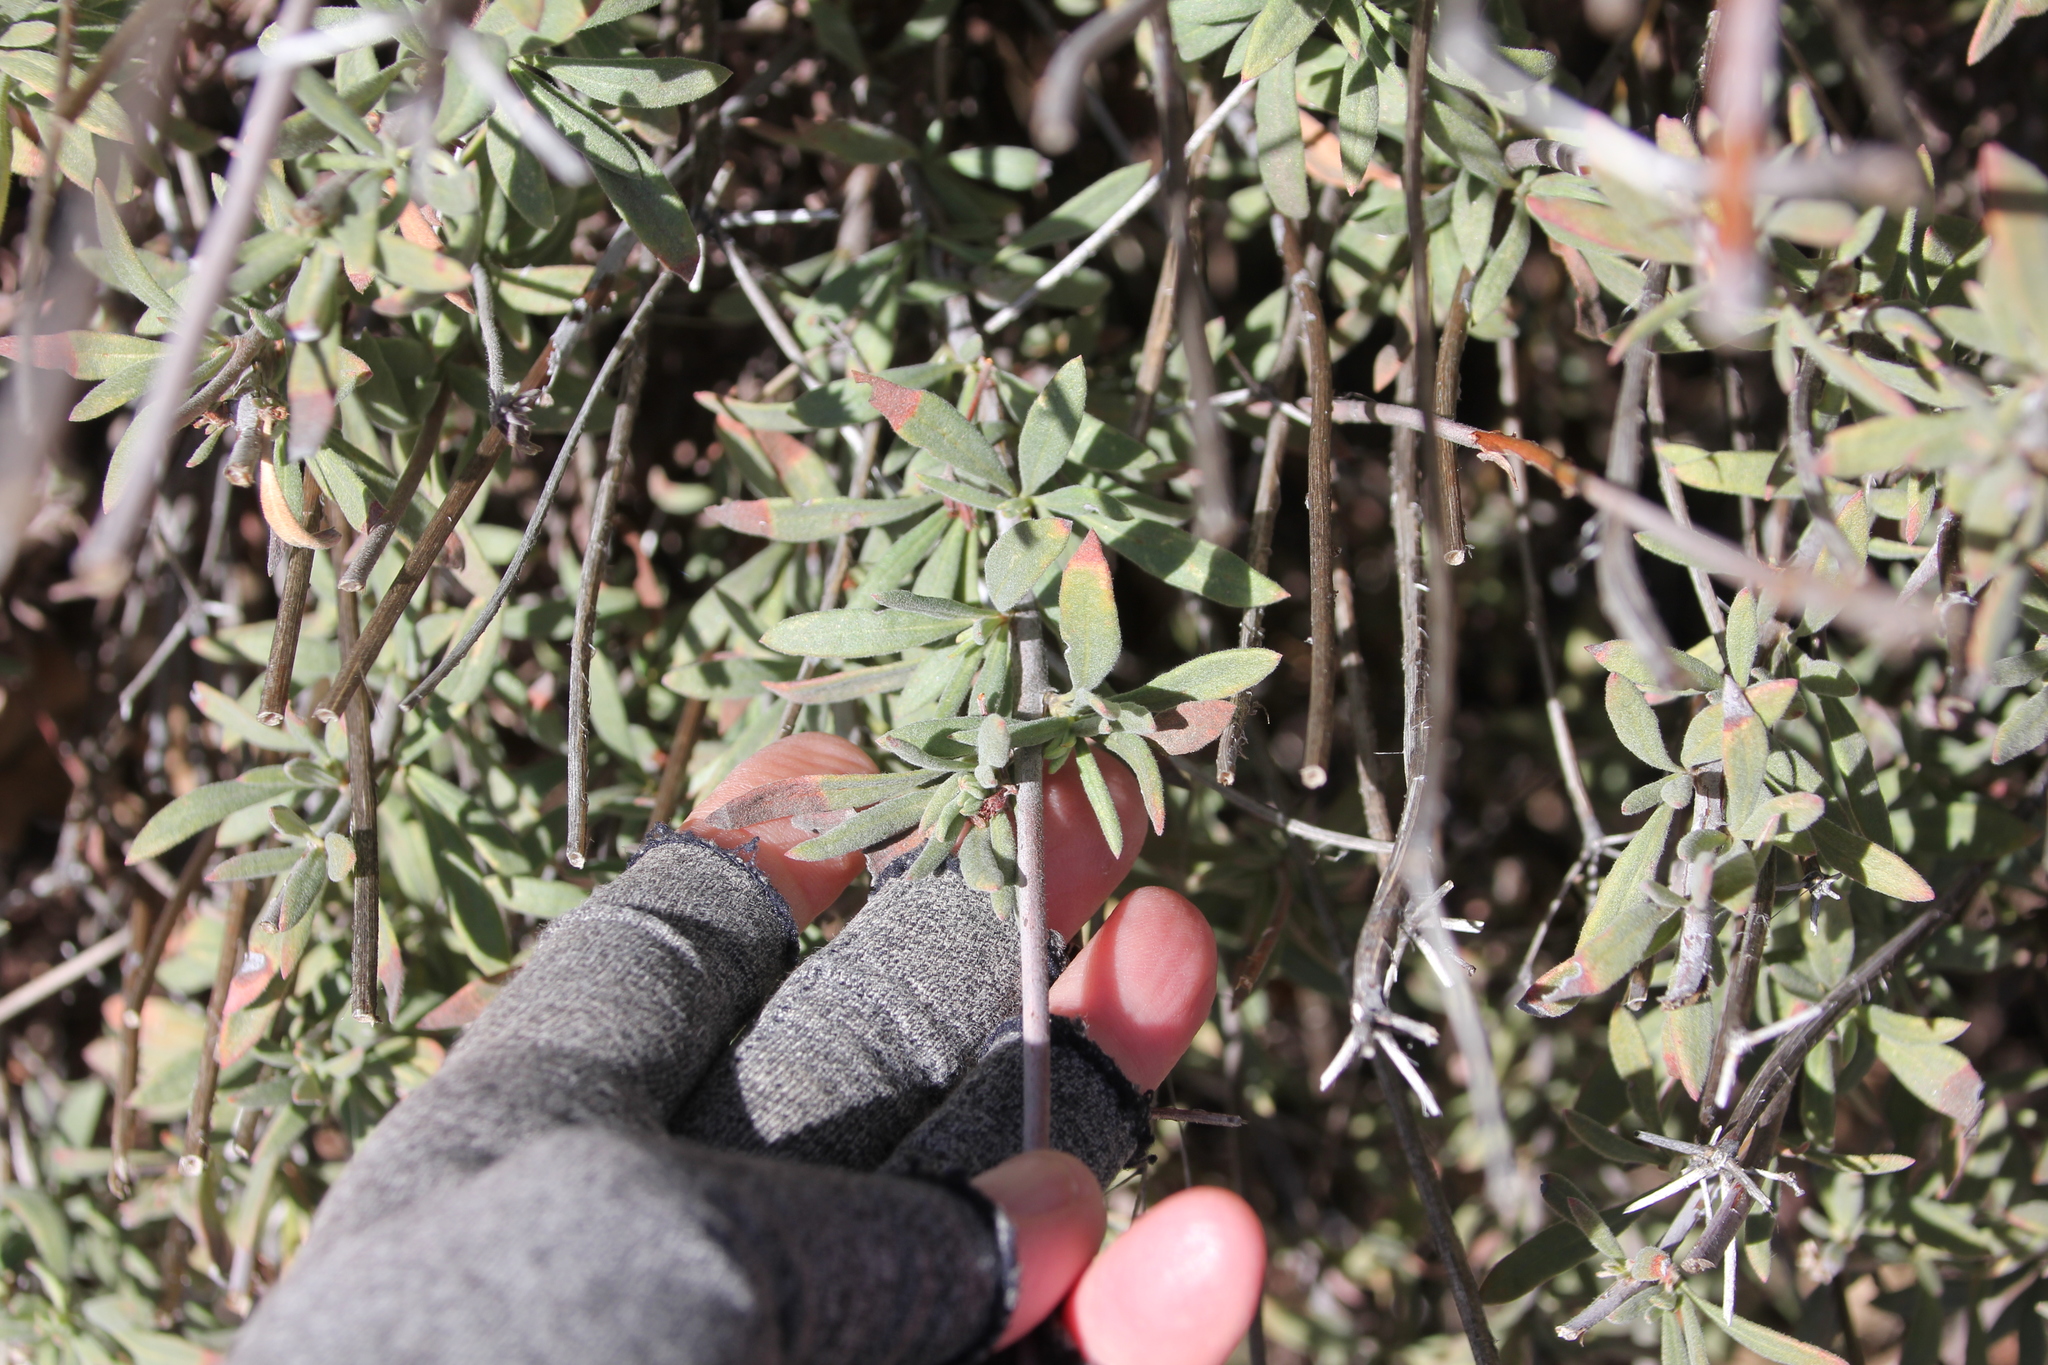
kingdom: Plantae
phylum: Tracheophyta
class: Magnoliopsida
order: Caryophyllales
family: Polygonaceae
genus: Eriogonum
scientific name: Eriogonum fasciculatum
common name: California wild buckwheat
